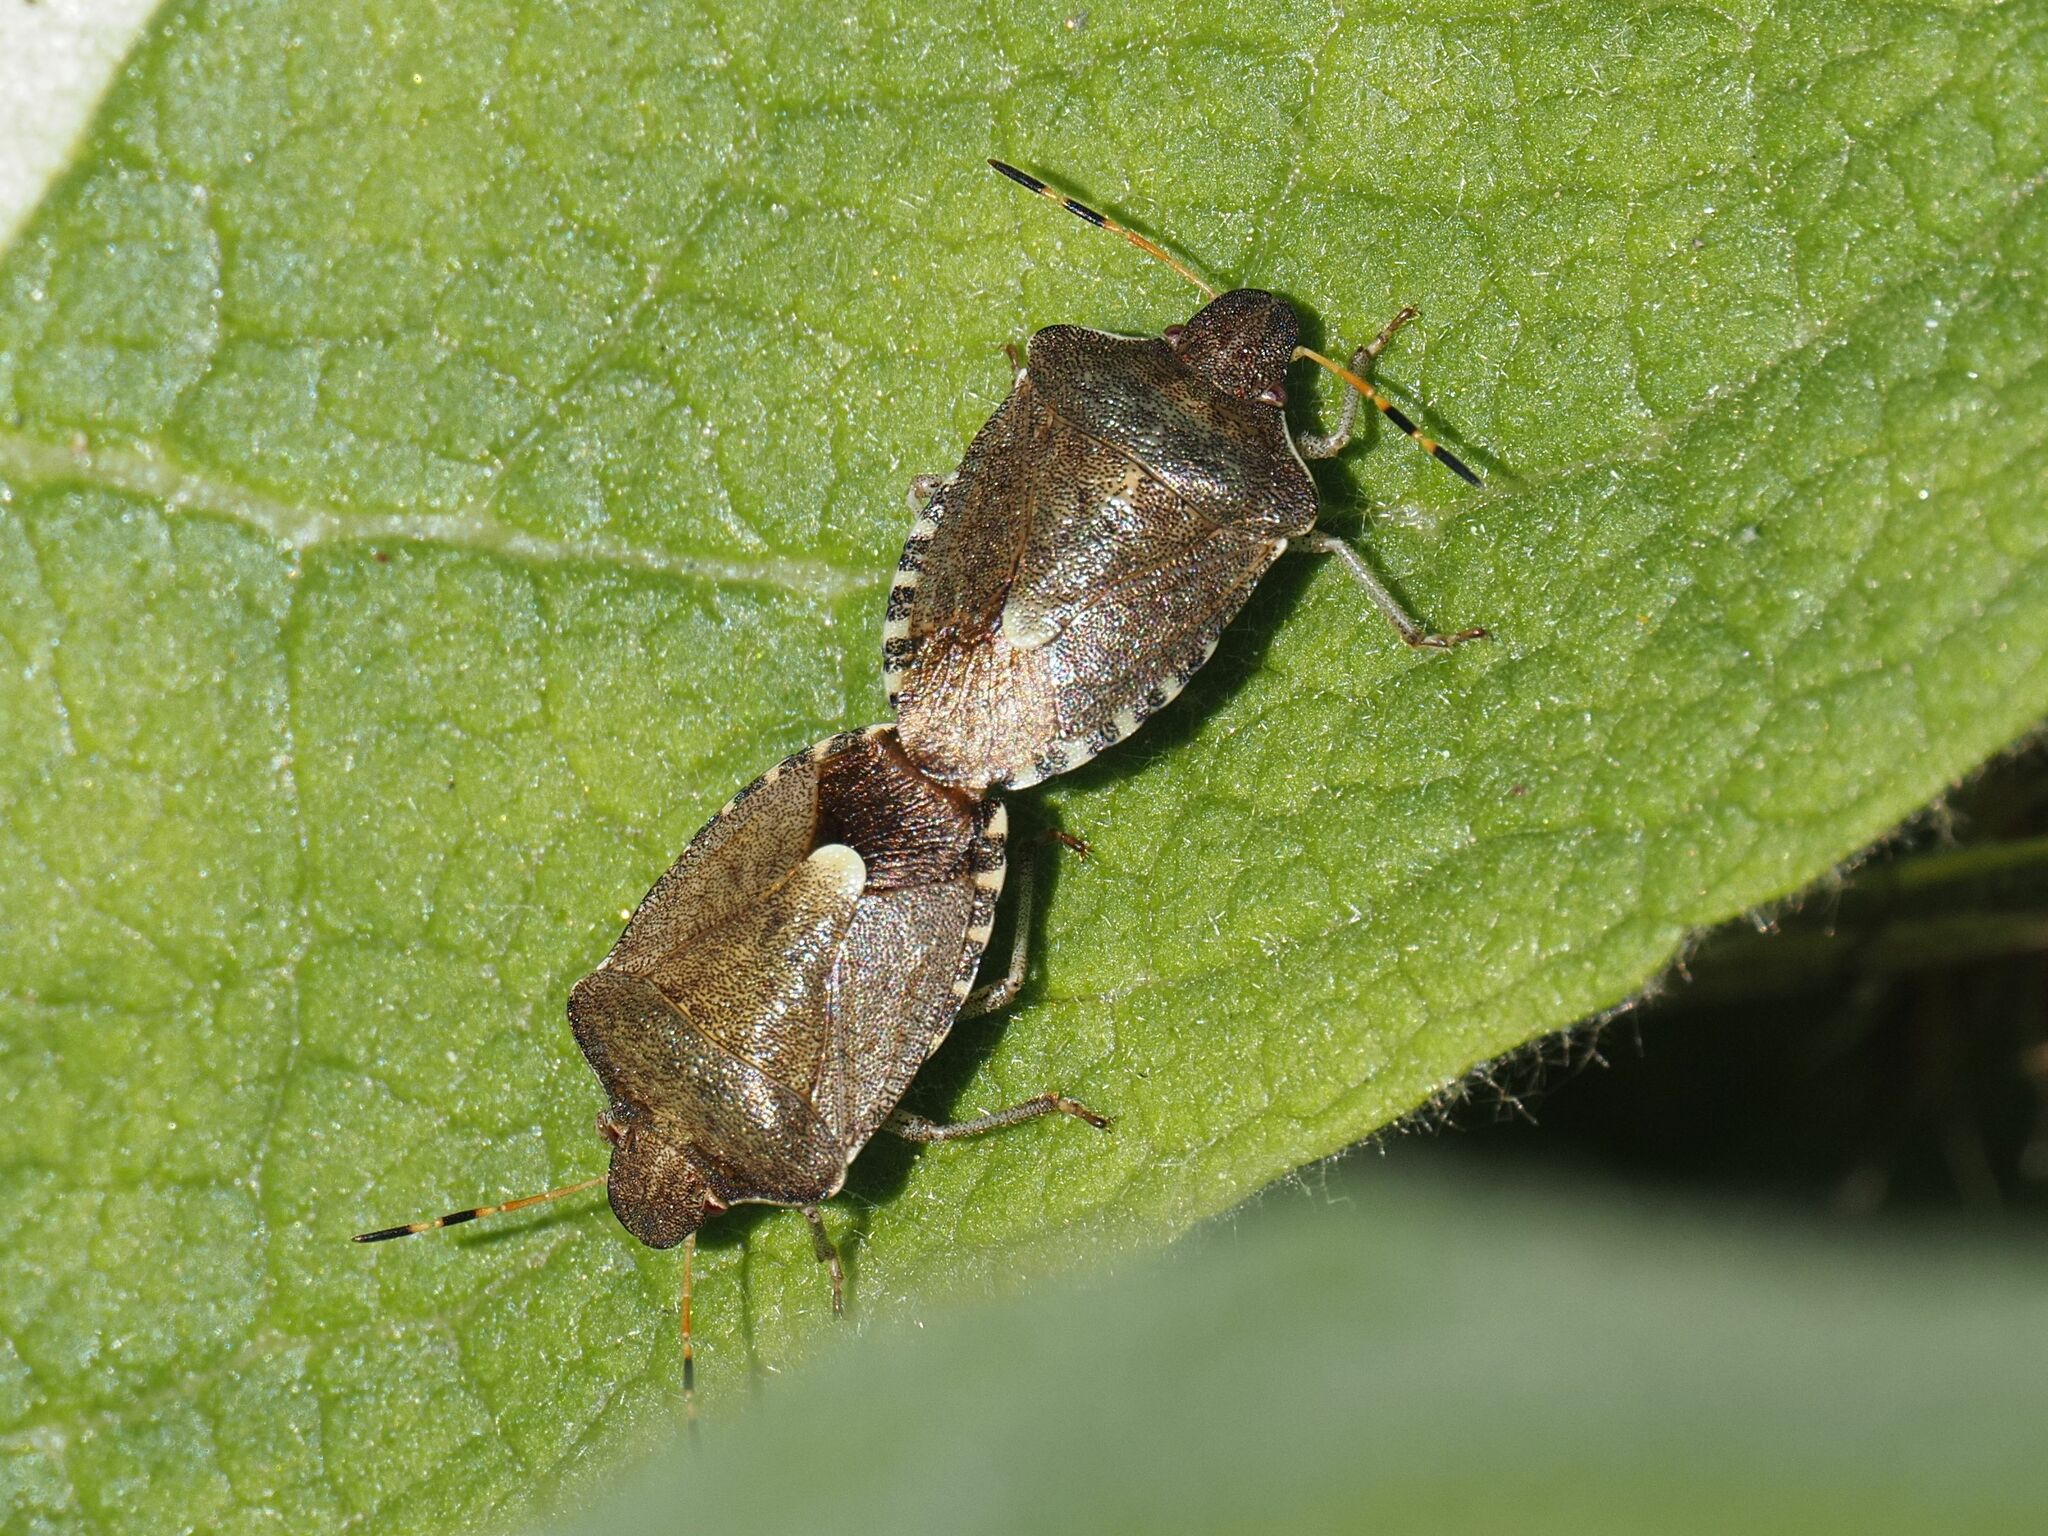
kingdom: Animalia
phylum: Arthropoda
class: Insecta
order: Hemiptera
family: Pentatomidae
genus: Holcostethus
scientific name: Holcostethus strictus
